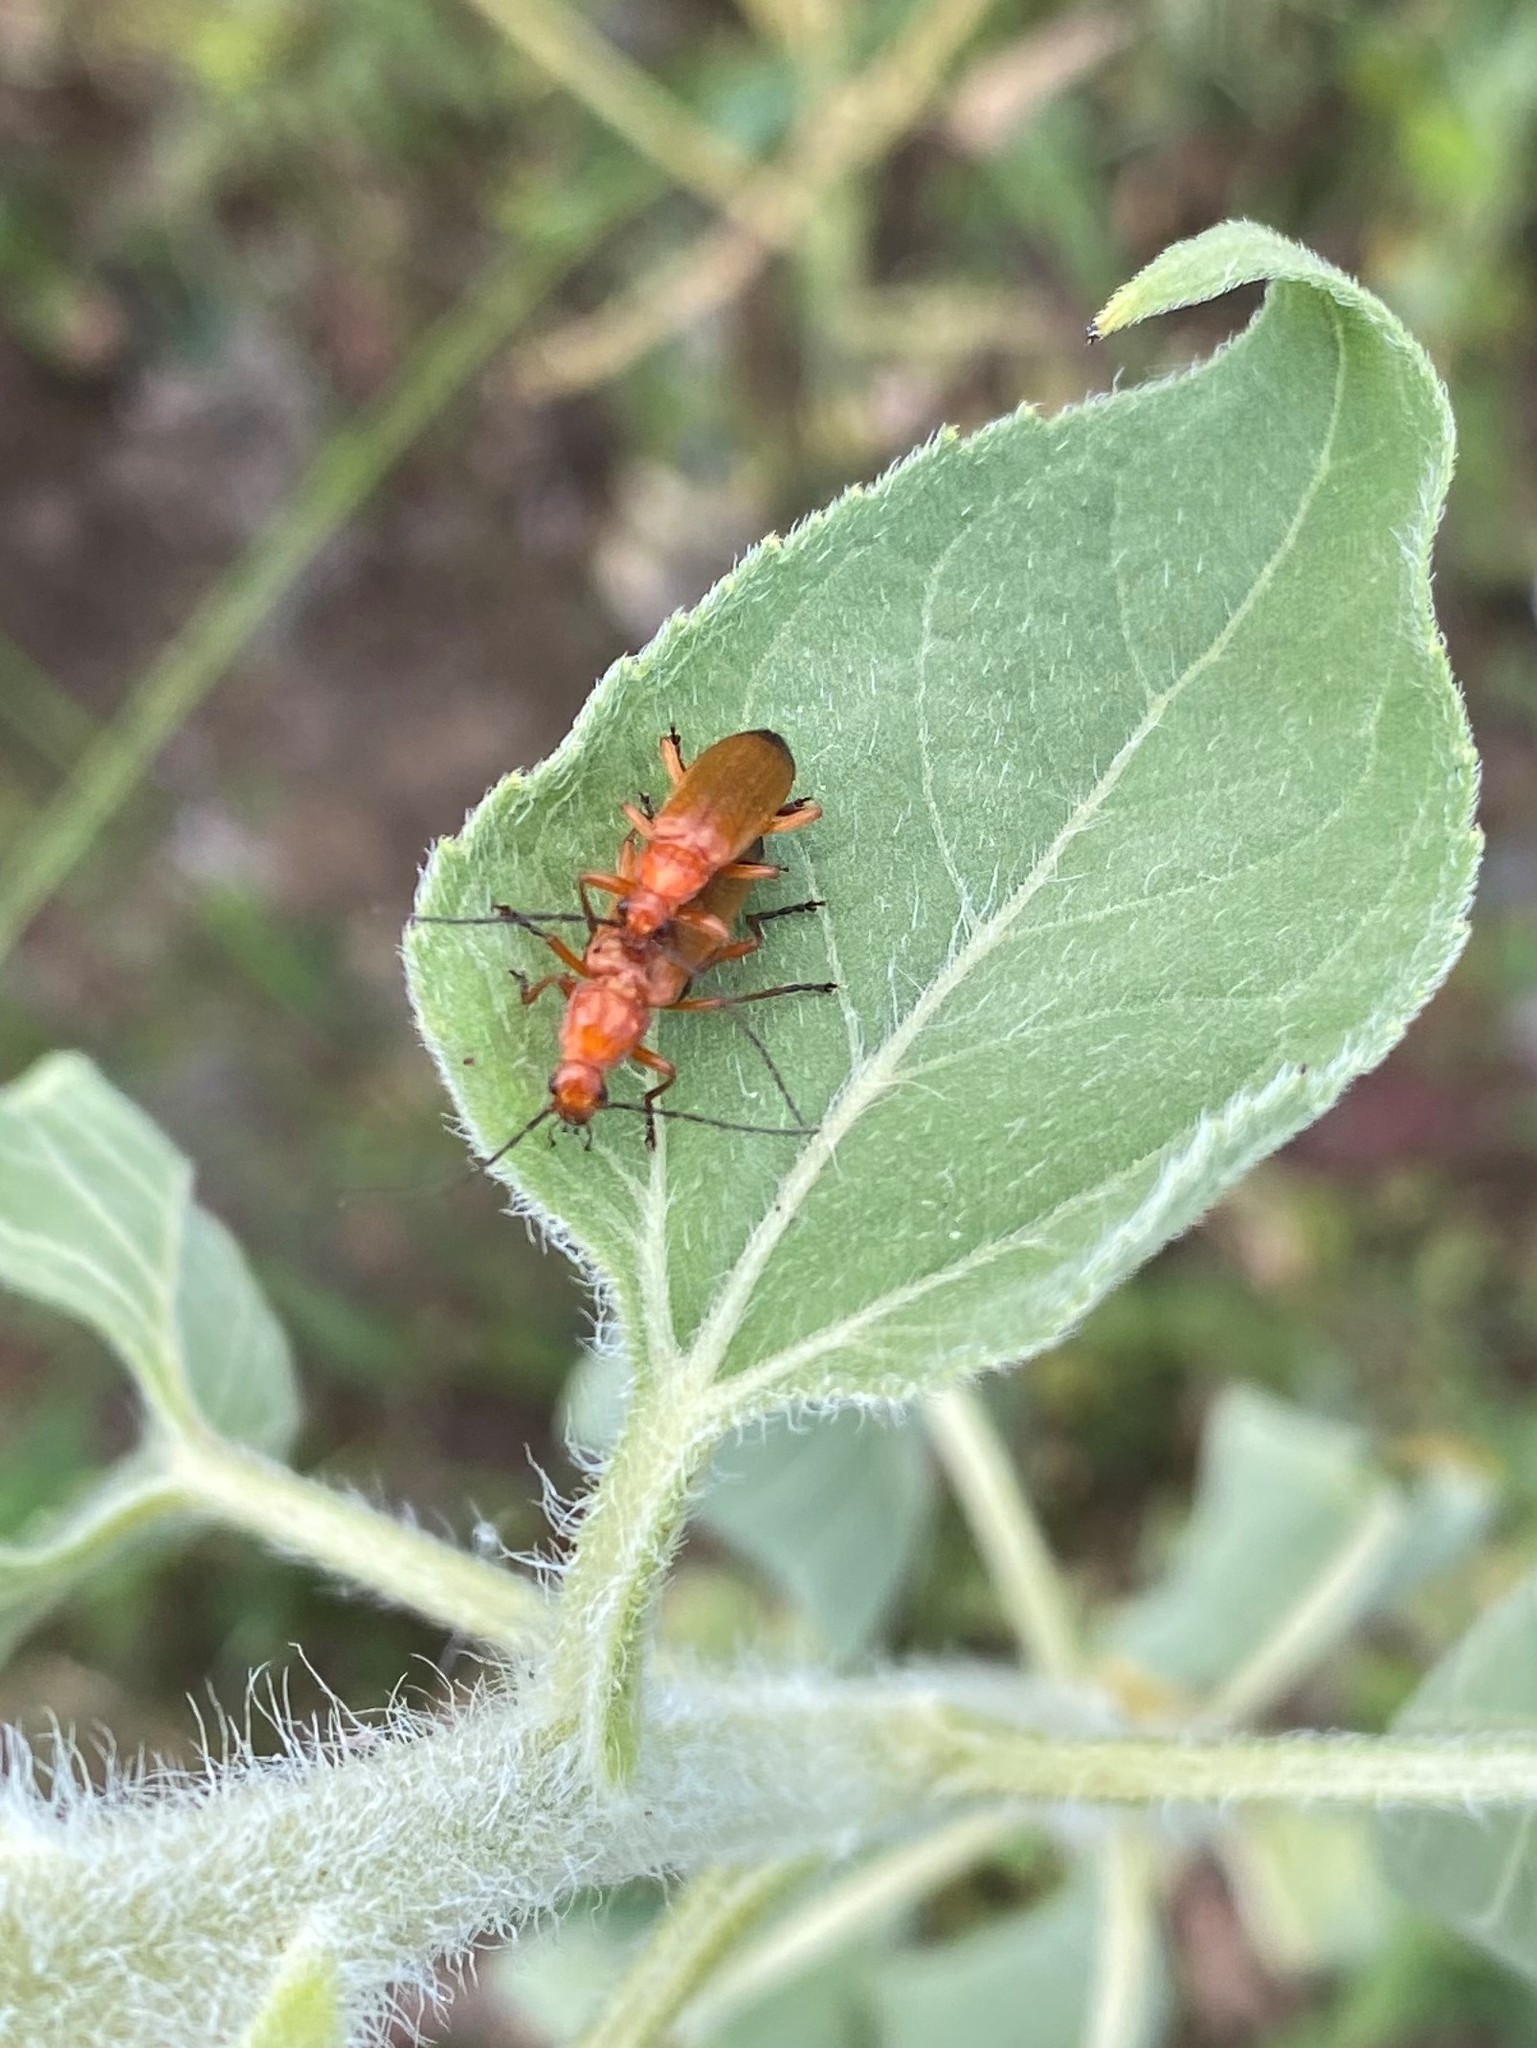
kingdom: Animalia
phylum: Arthropoda
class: Insecta
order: Coleoptera
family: Cantharidae
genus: Rhagonycha
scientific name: Rhagonycha fulva
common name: Common red soldier beetle
